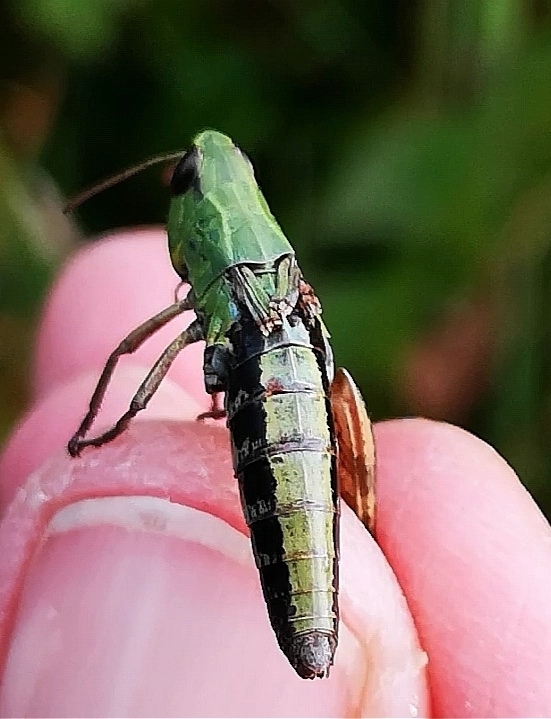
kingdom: Animalia
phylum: Arthropoda
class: Insecta
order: Orthoptera
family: Acrididae
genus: Pseudochorthippus
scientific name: Pseudochorthippus parallelus
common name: Meadow grasshopper
